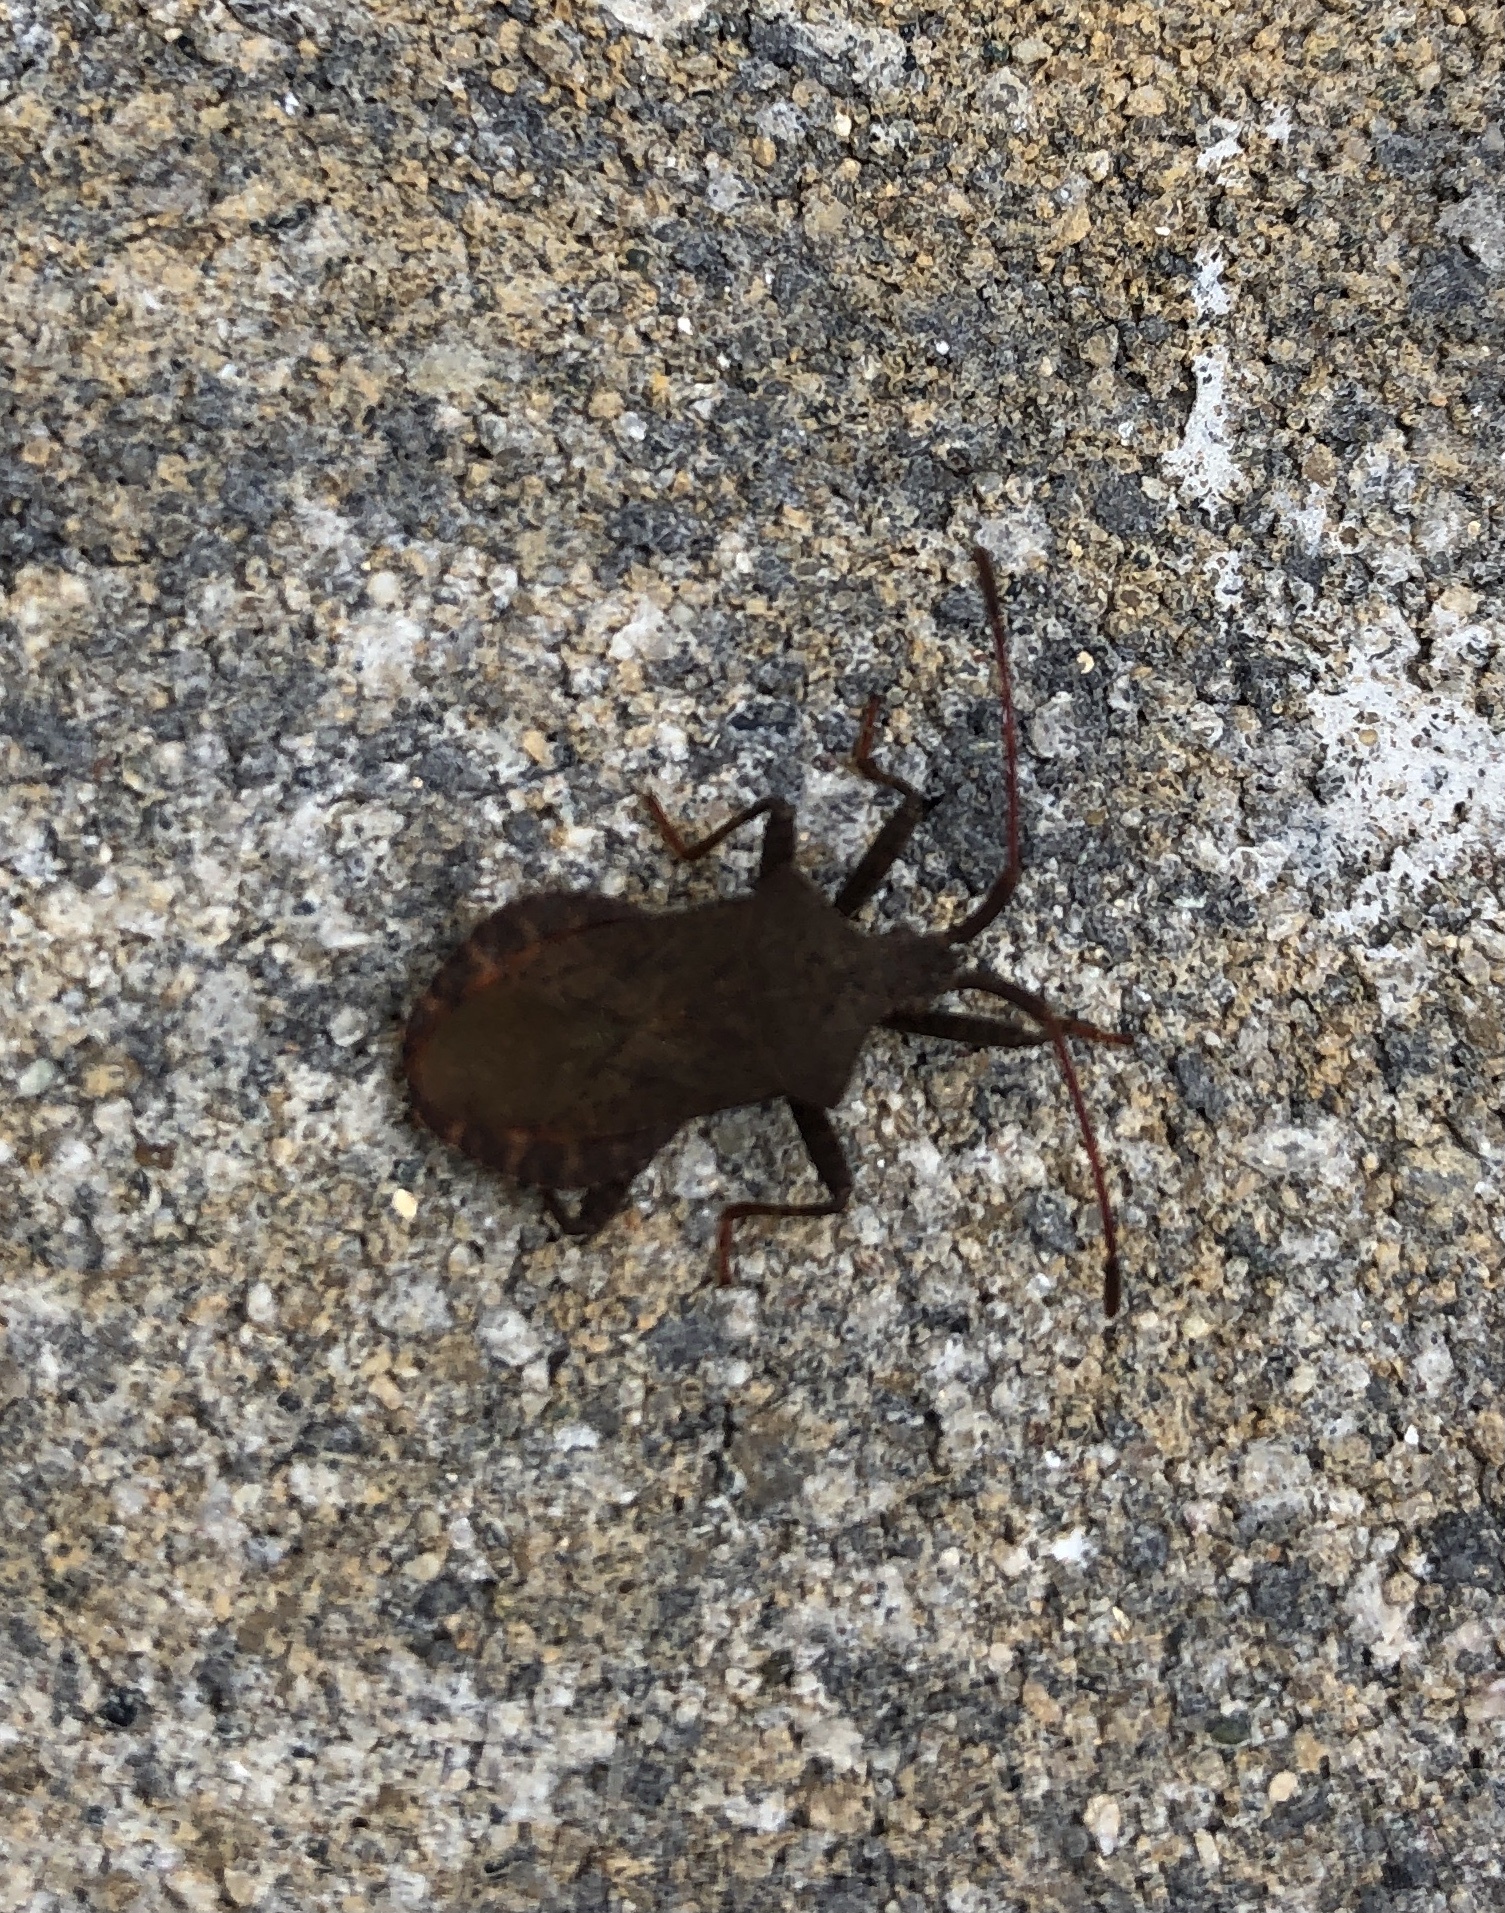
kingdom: Animalia
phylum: Arthropoda
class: Insecta
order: Hemiptera
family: Coreidae
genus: Coreus
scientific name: Coreus marginatus
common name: Dock bug
